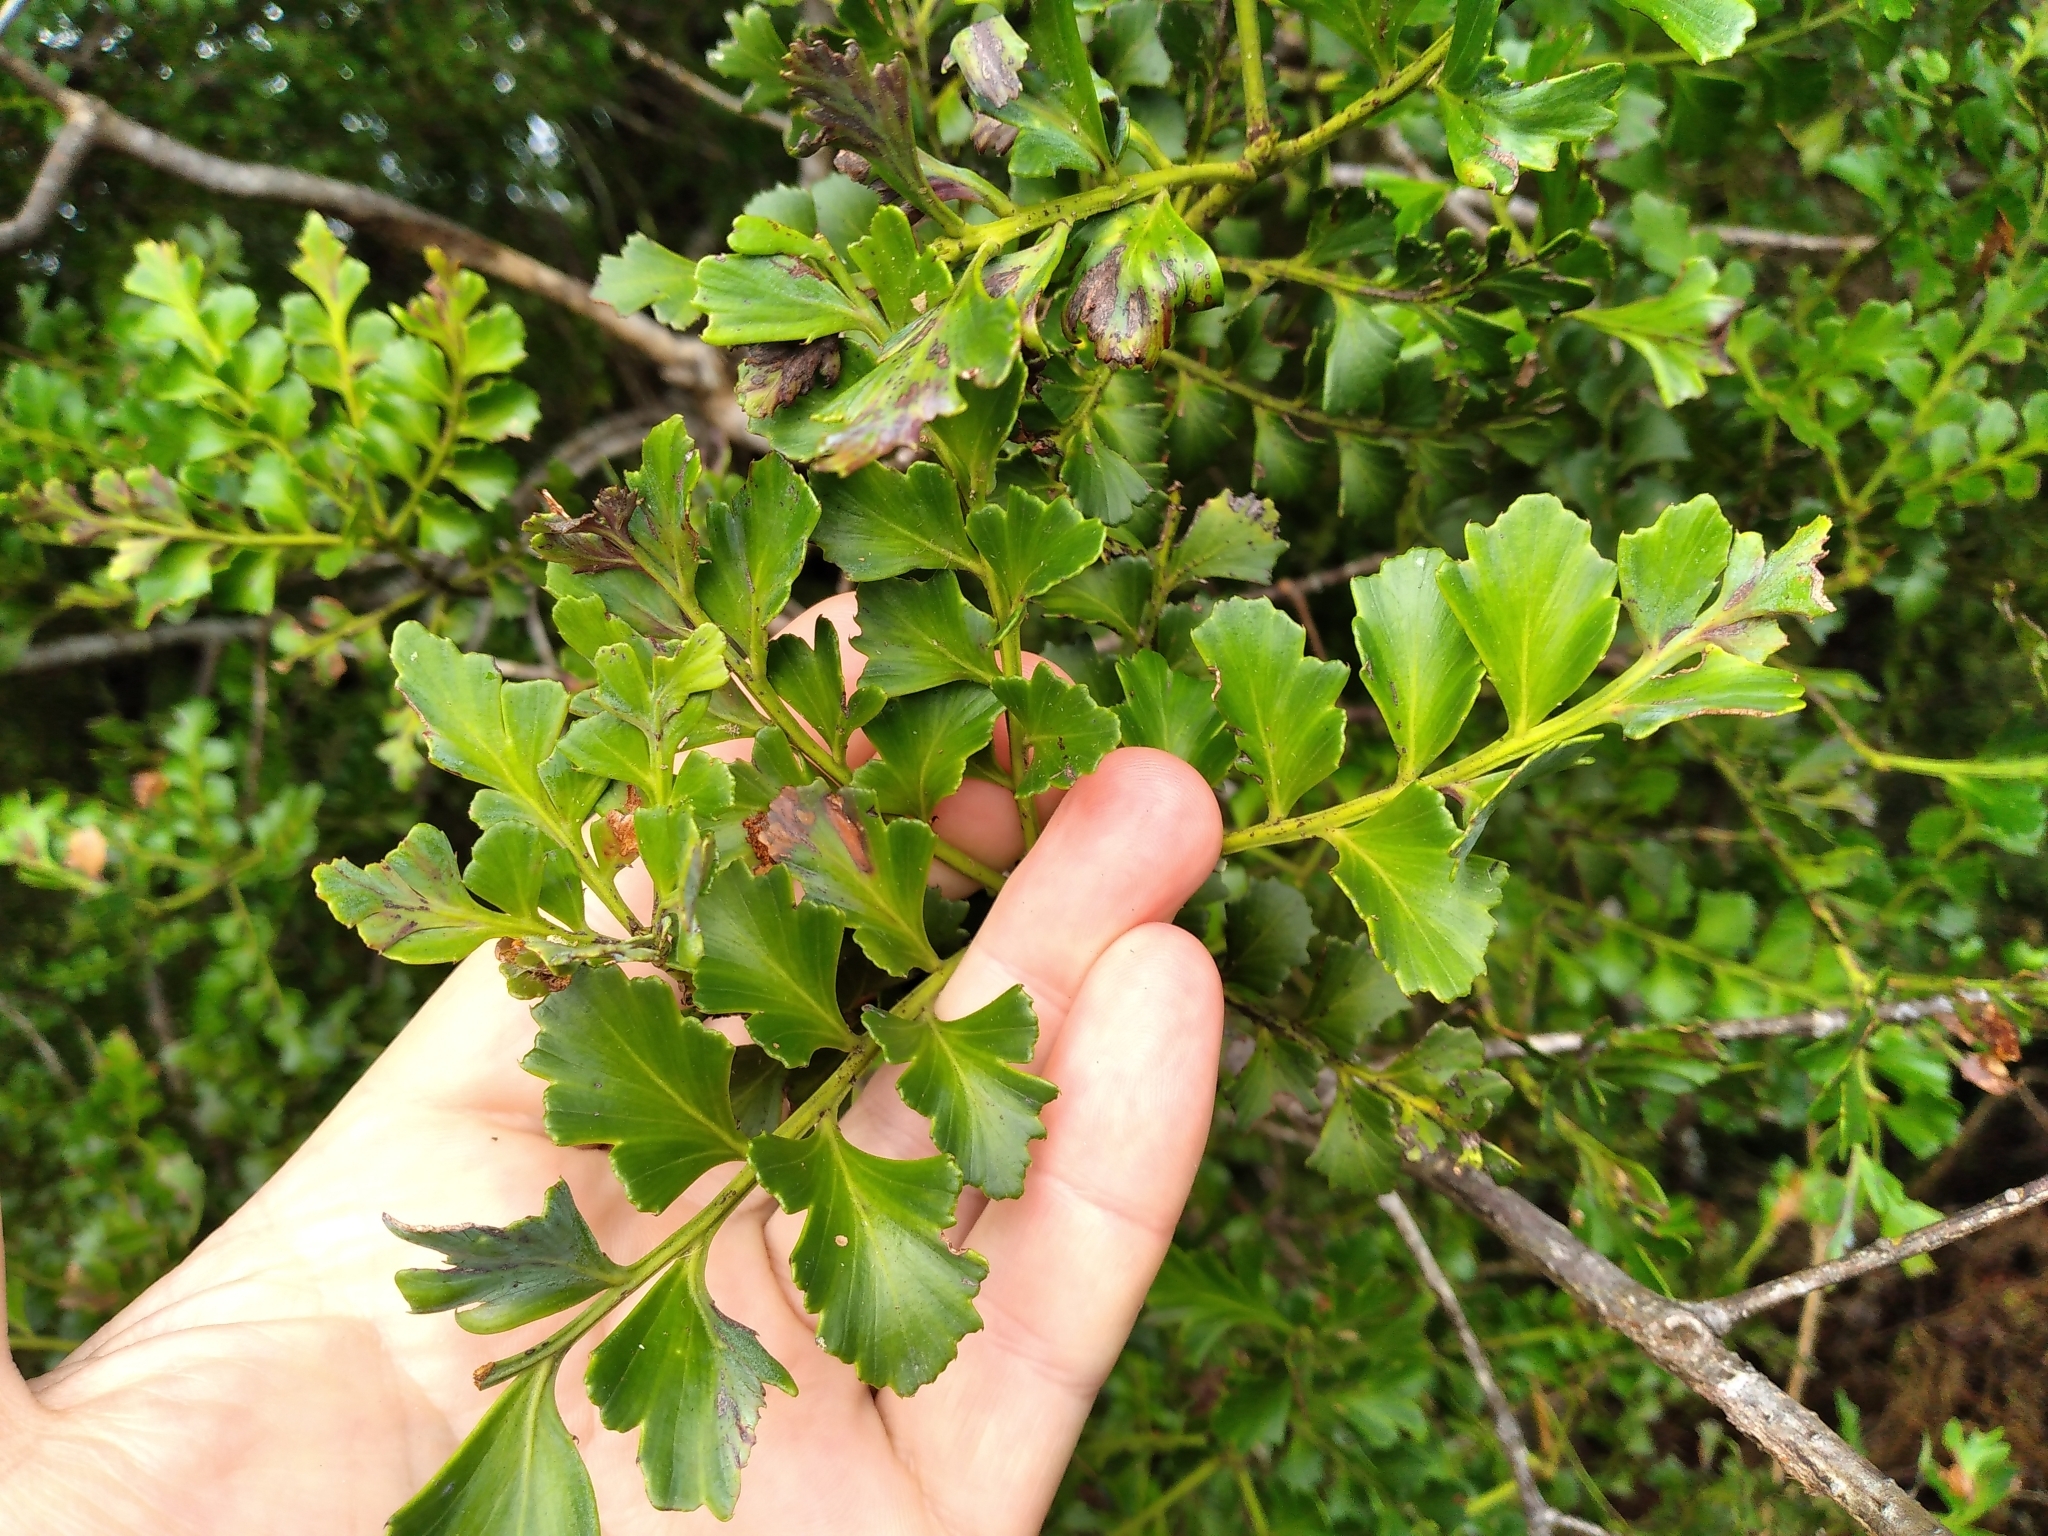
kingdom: Plantae
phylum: Tracheophyta
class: Pinopsida
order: Pinales
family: Phyllocladaceae
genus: Phyllocladus
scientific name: Phyllocladus toatoa
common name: Celery-top pine
